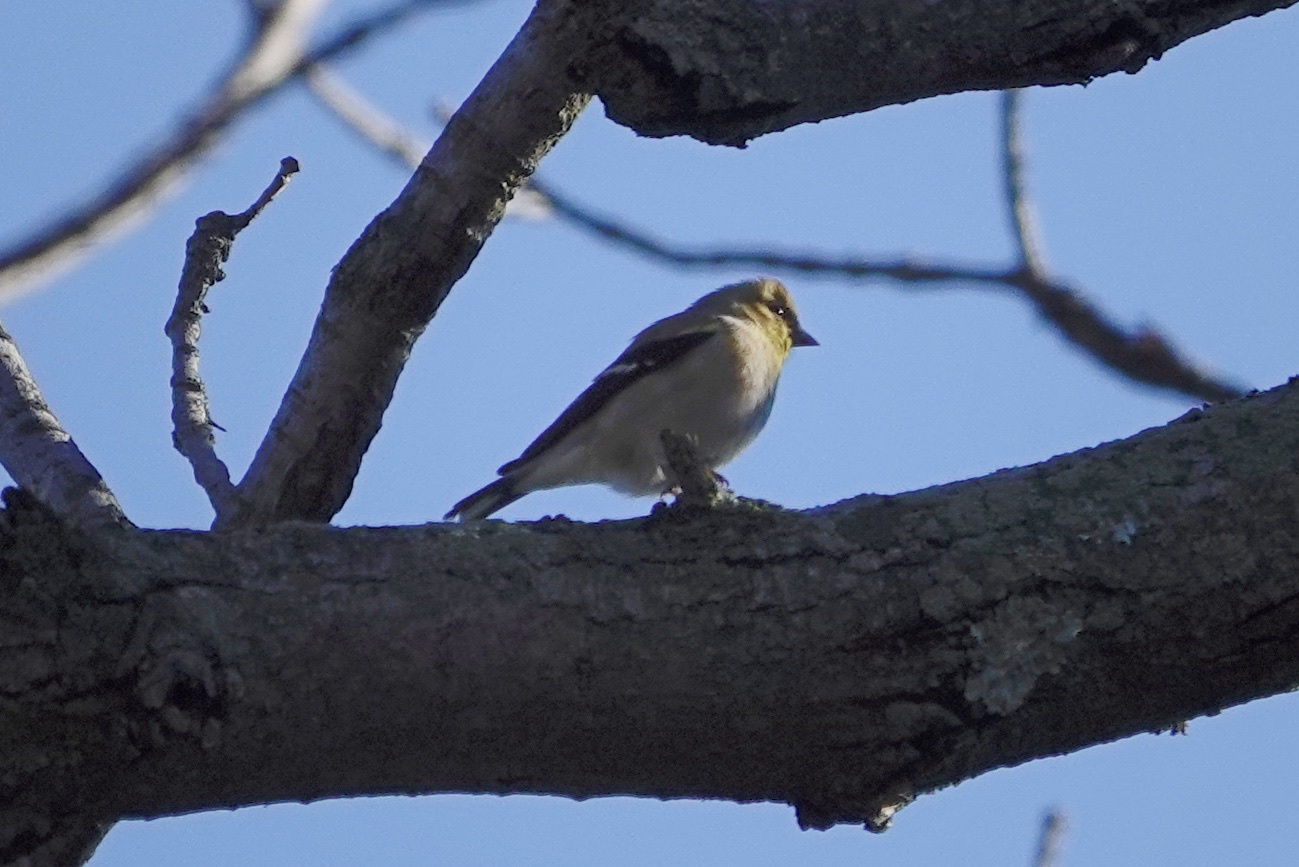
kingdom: Animalia
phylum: Chordata
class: Aves
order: Passeriformes
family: Fringillidae
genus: Spinus
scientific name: Spinus tristis
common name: American goldfinch
